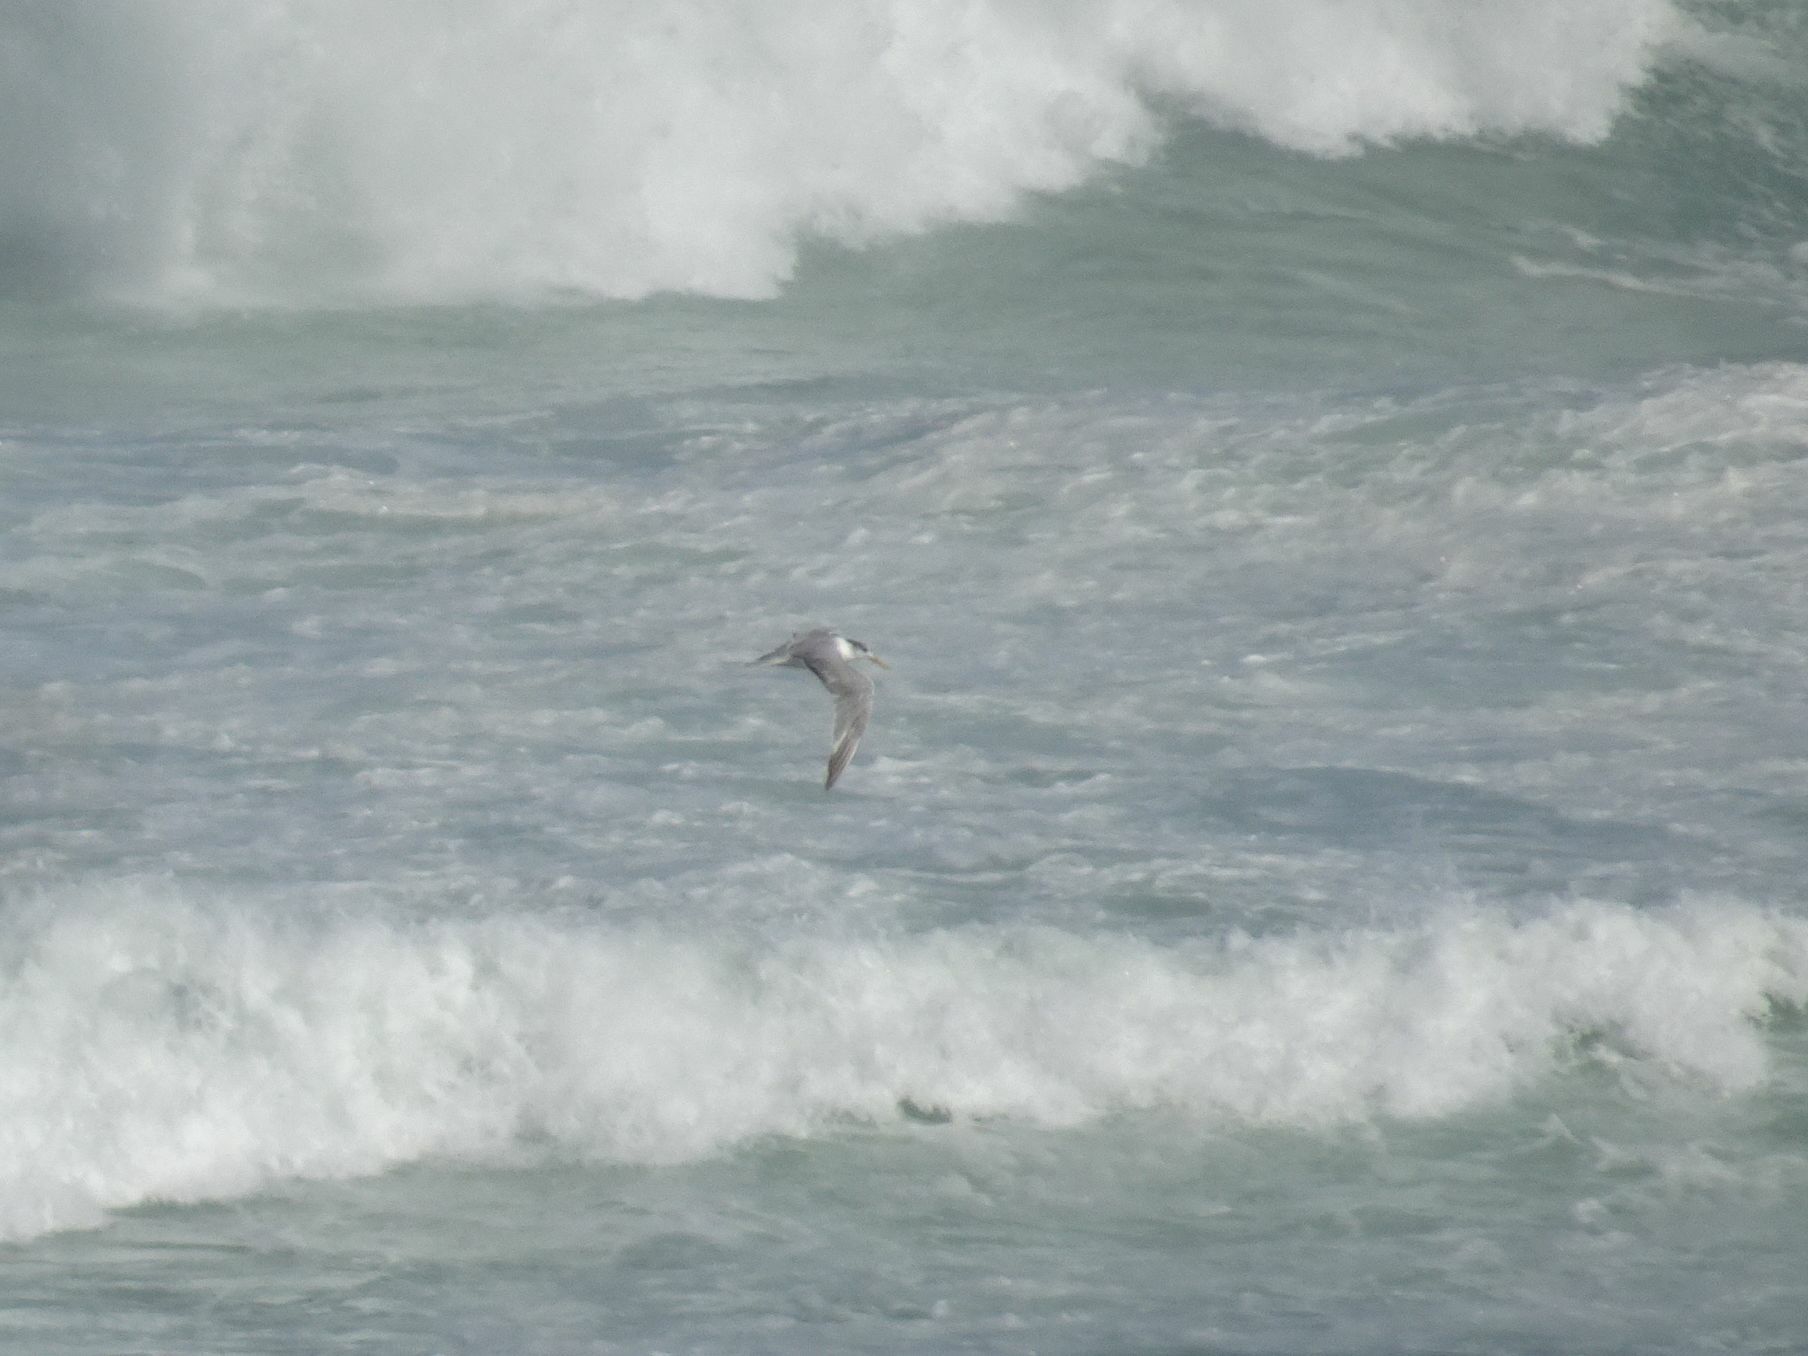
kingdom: Animalia
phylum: Chordata
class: Aves
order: Charadriiformes
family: Laridae
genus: Thalasseus
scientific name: Thalasseus bergii
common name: Greater crested tern
